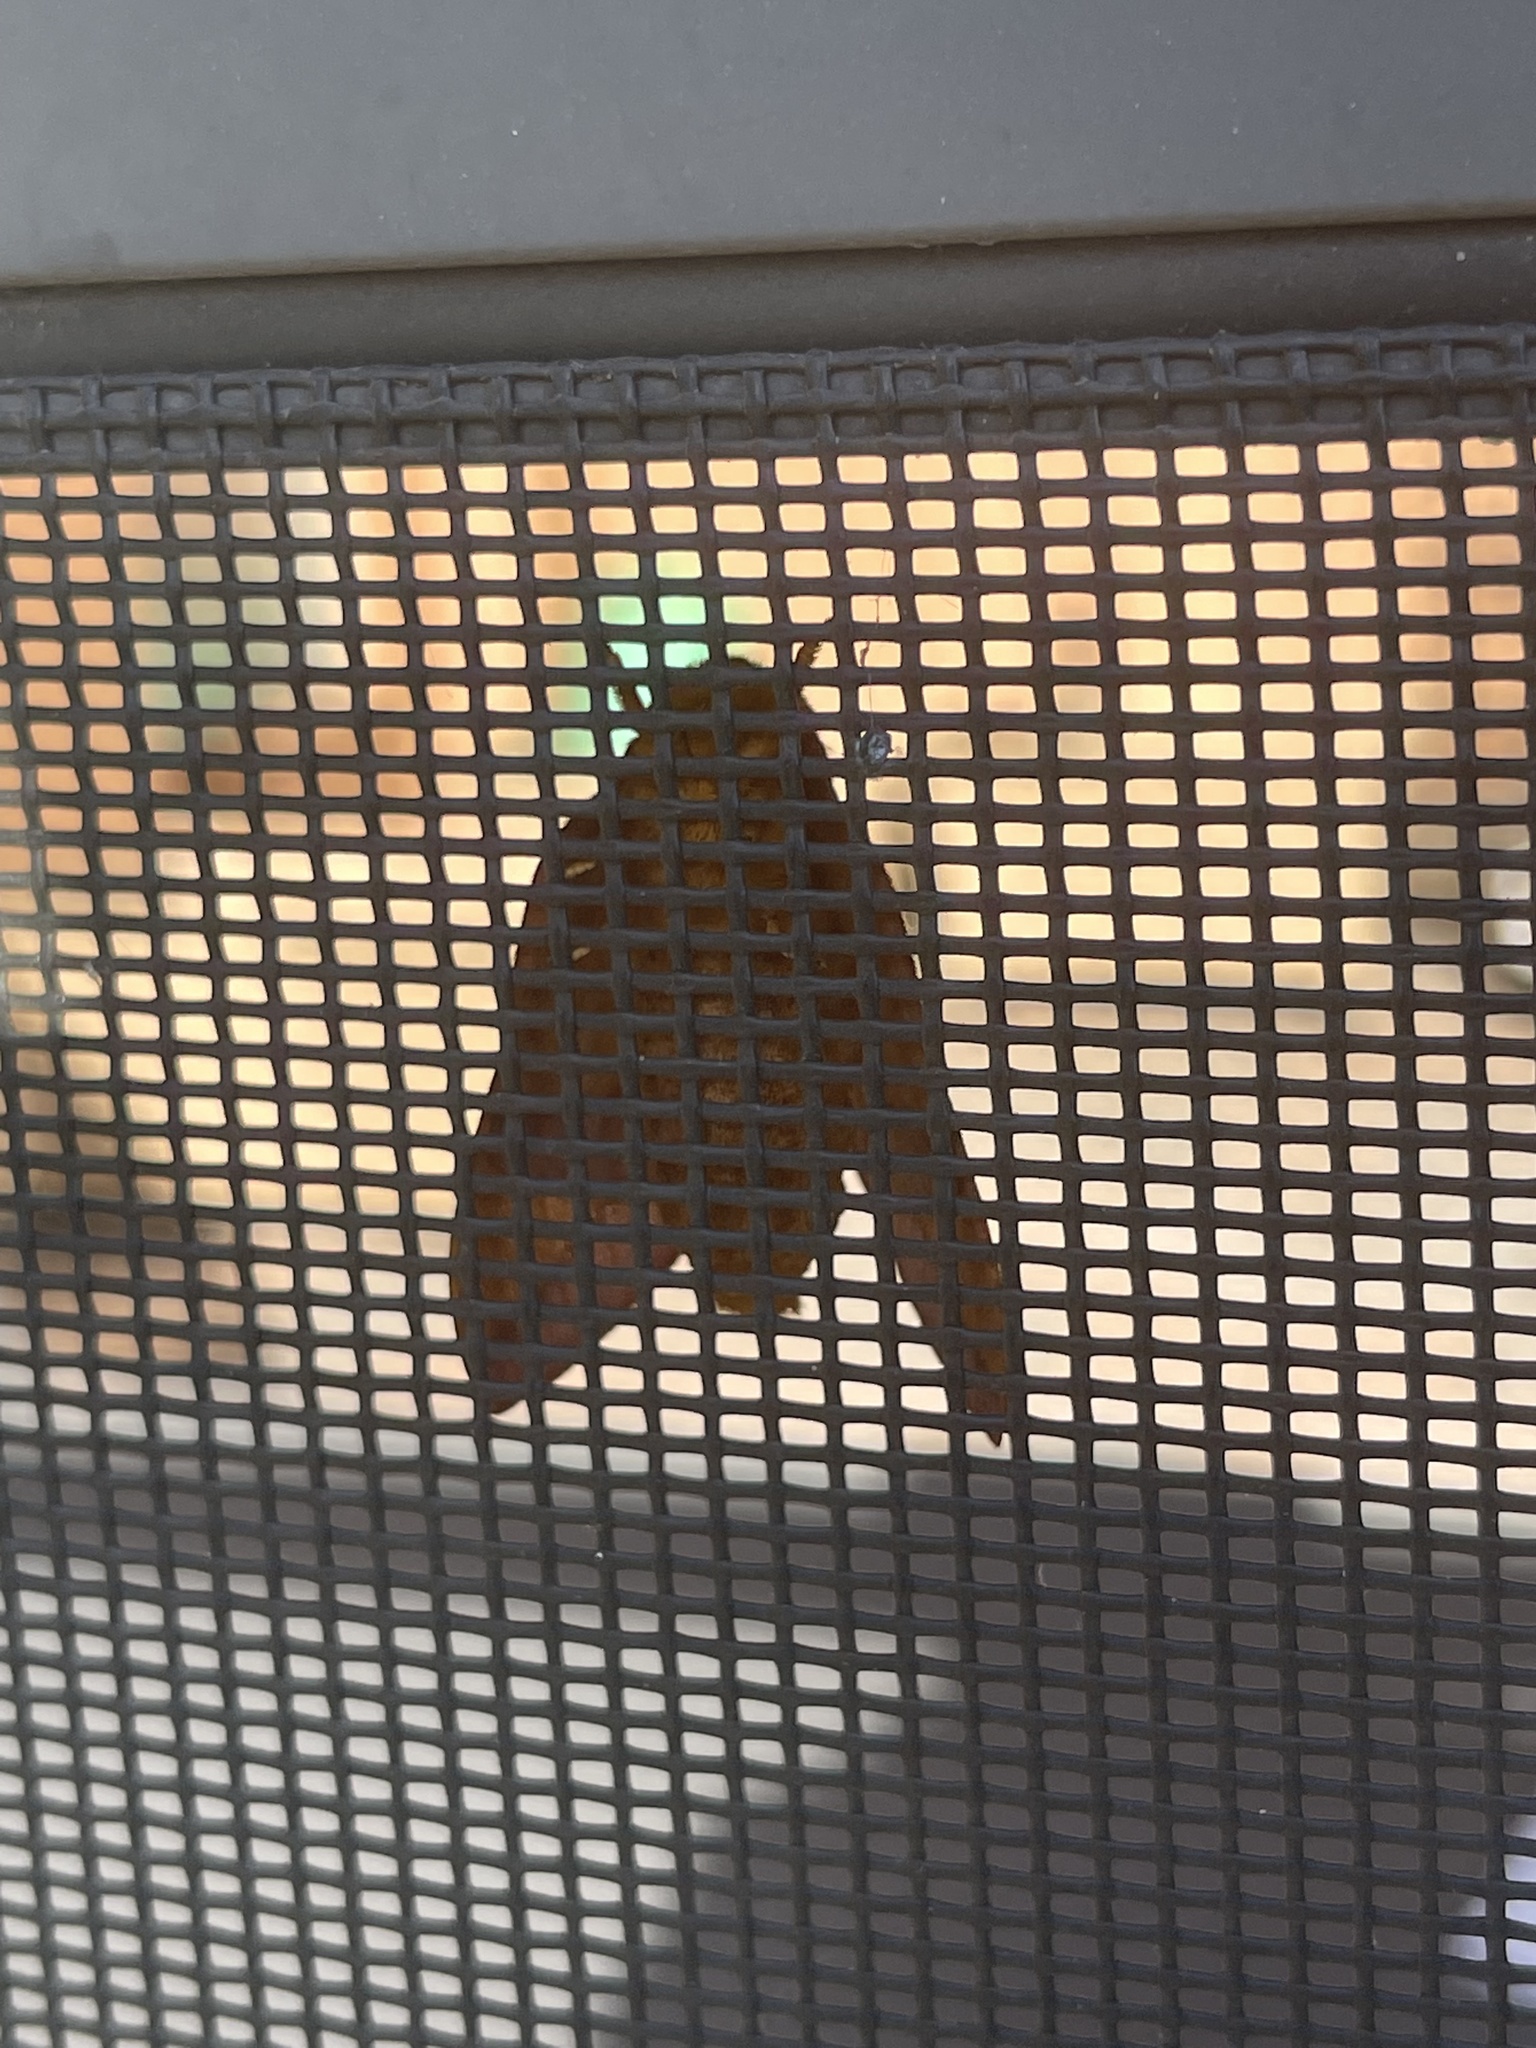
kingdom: Animalia
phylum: Arthropoda
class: Insecta
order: Lepidoptera
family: Saturniidae
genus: Anisota
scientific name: Anisota virginiensis
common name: Pink striped oakworm moth
